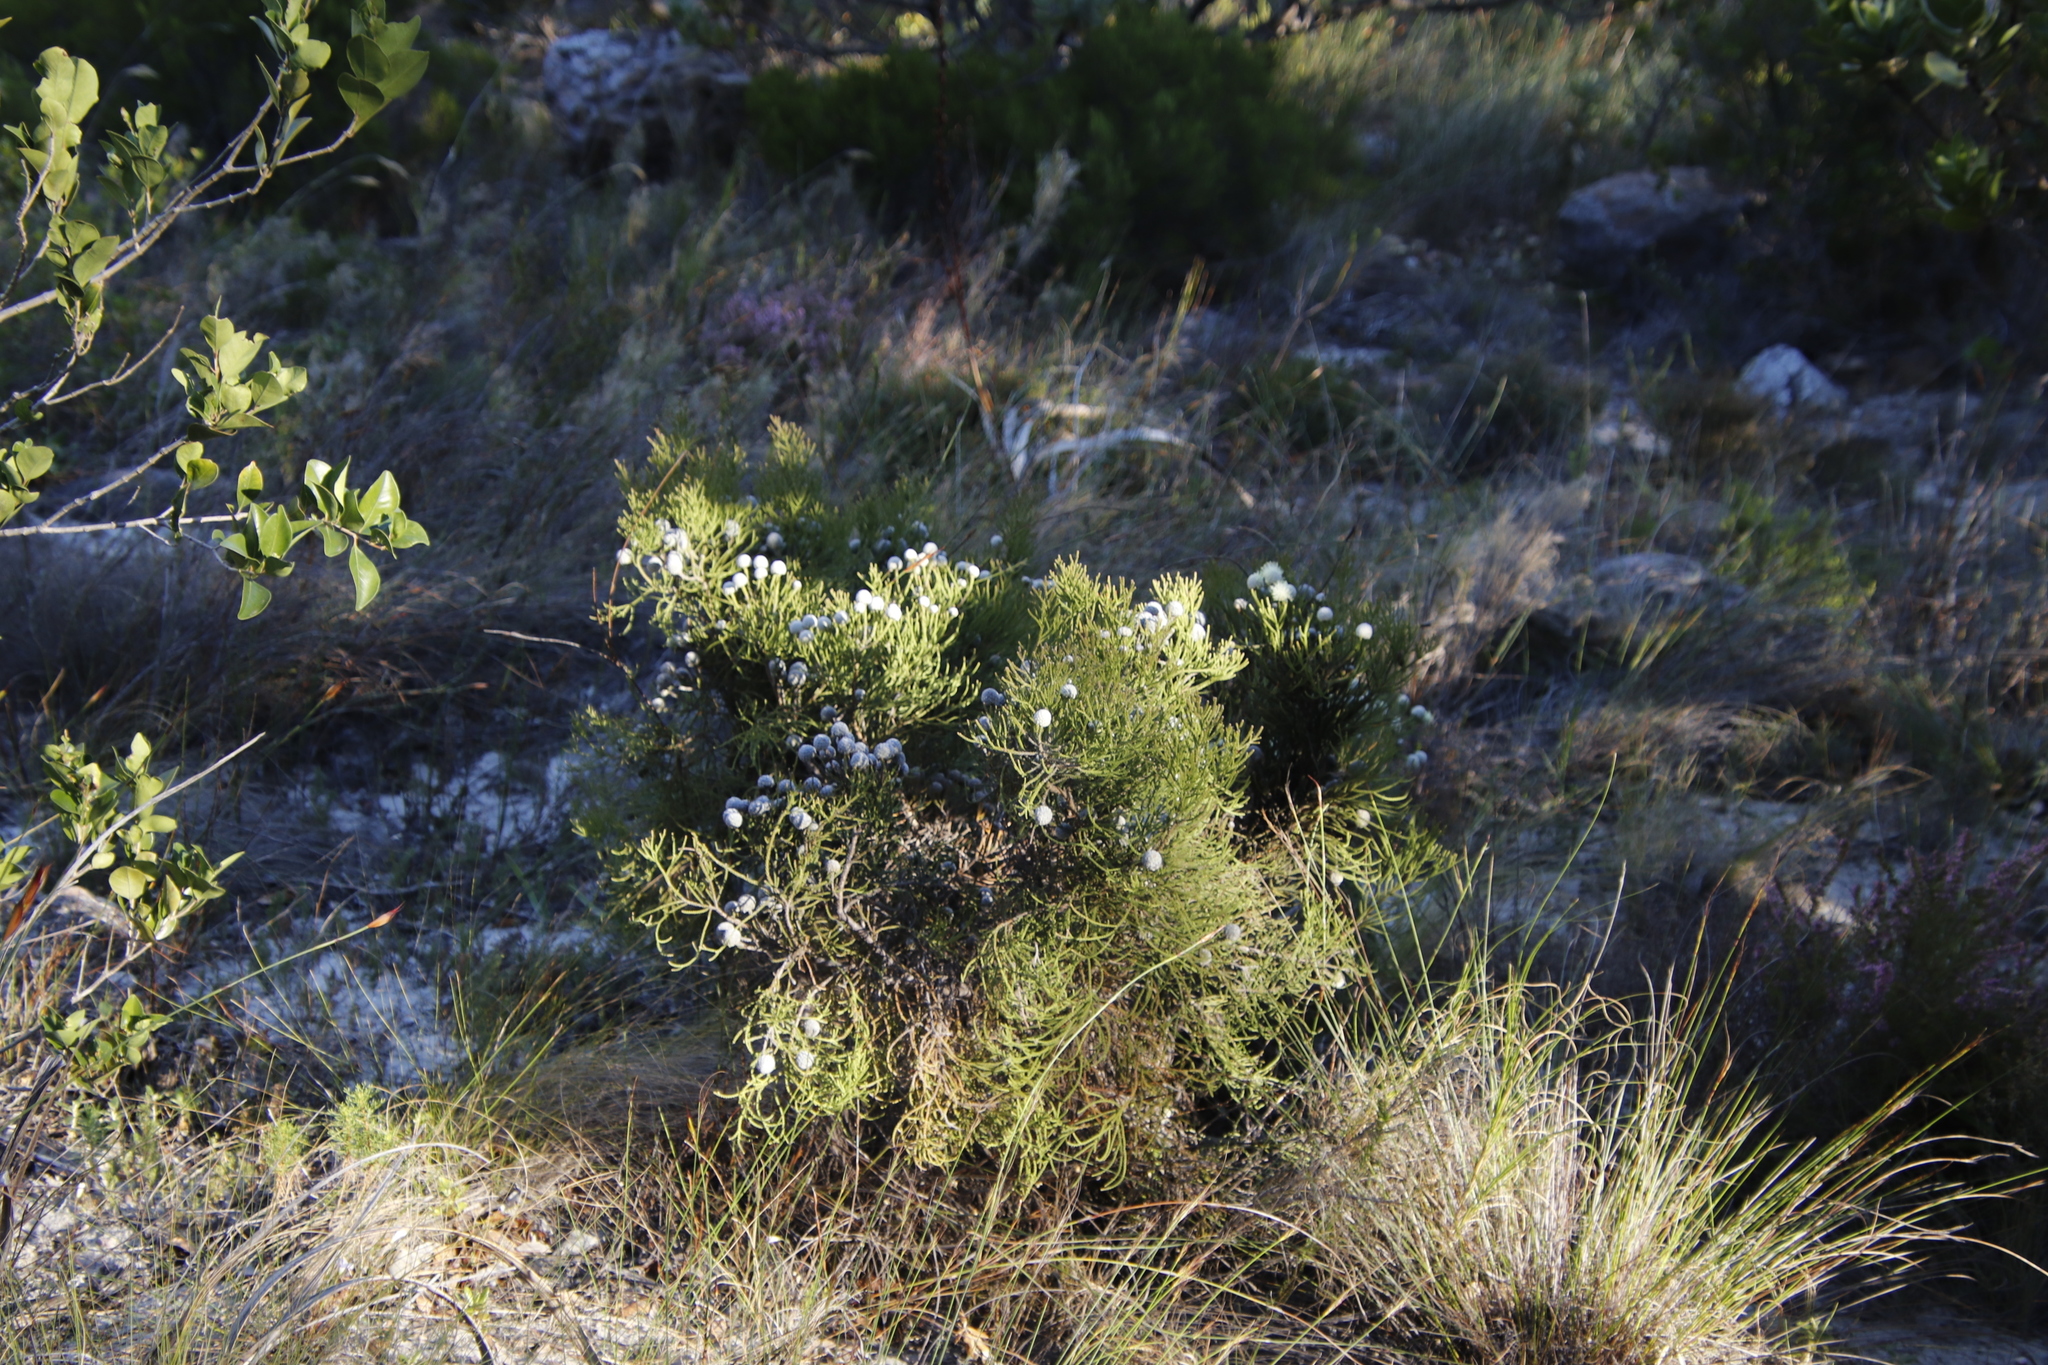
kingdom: Plantae
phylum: Tracheophyta
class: Magnoliopsida
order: Bruniales
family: Bruniaceae
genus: Brunia
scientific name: Brunia noduliflora
